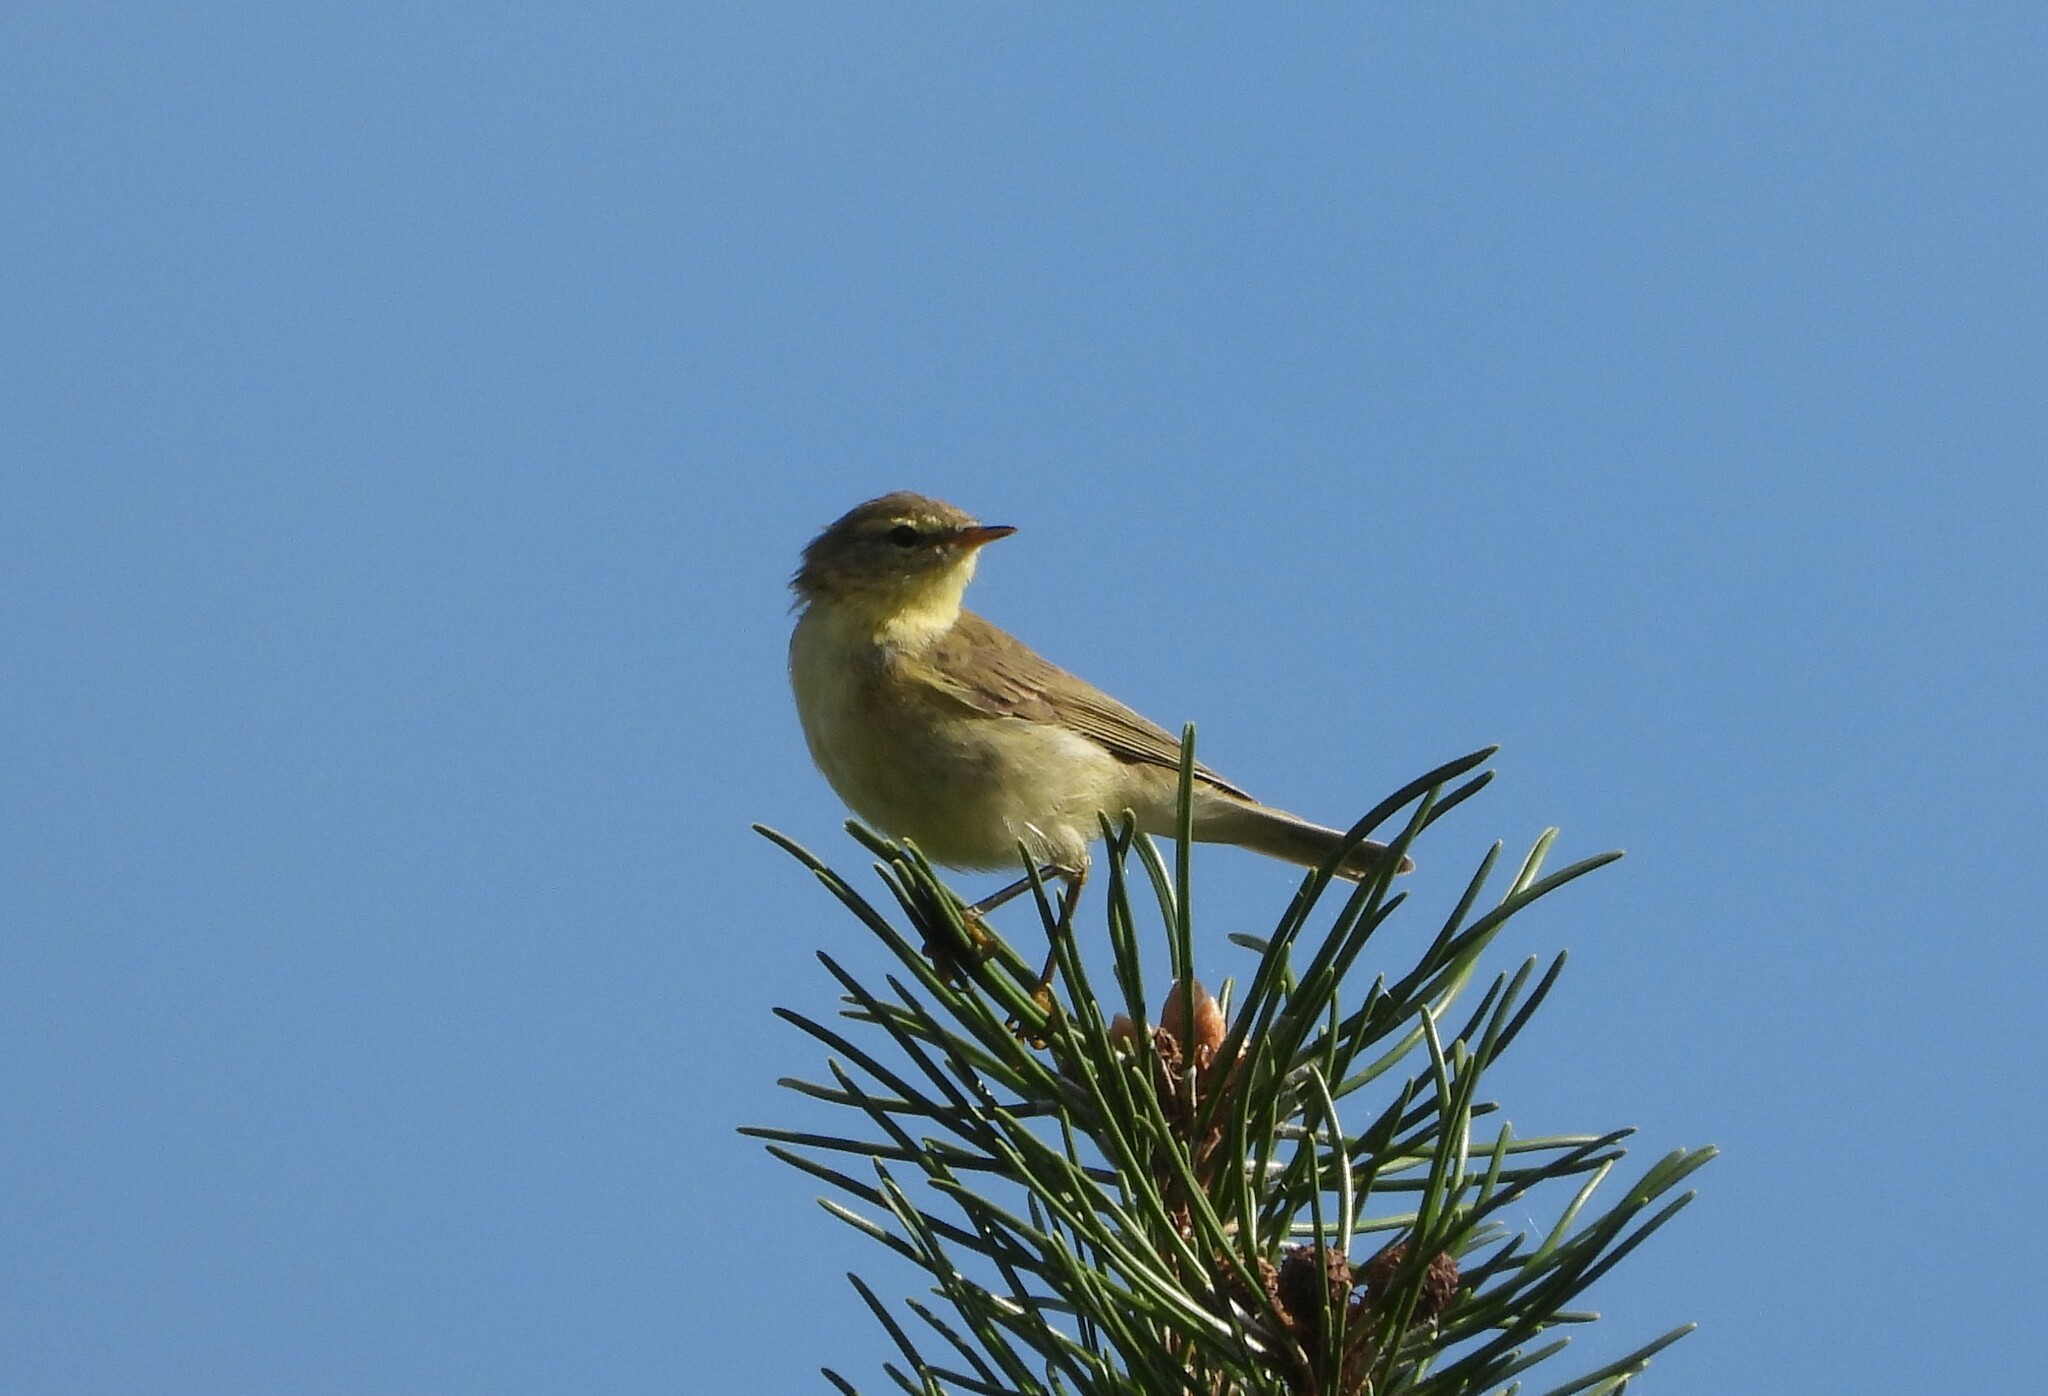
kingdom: Animalia
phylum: Chordata
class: Aves
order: Passeriformes
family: Phylloscopidae
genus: Phylloscopus
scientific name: Phylloscopus collybita
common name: Common chiffchaff
